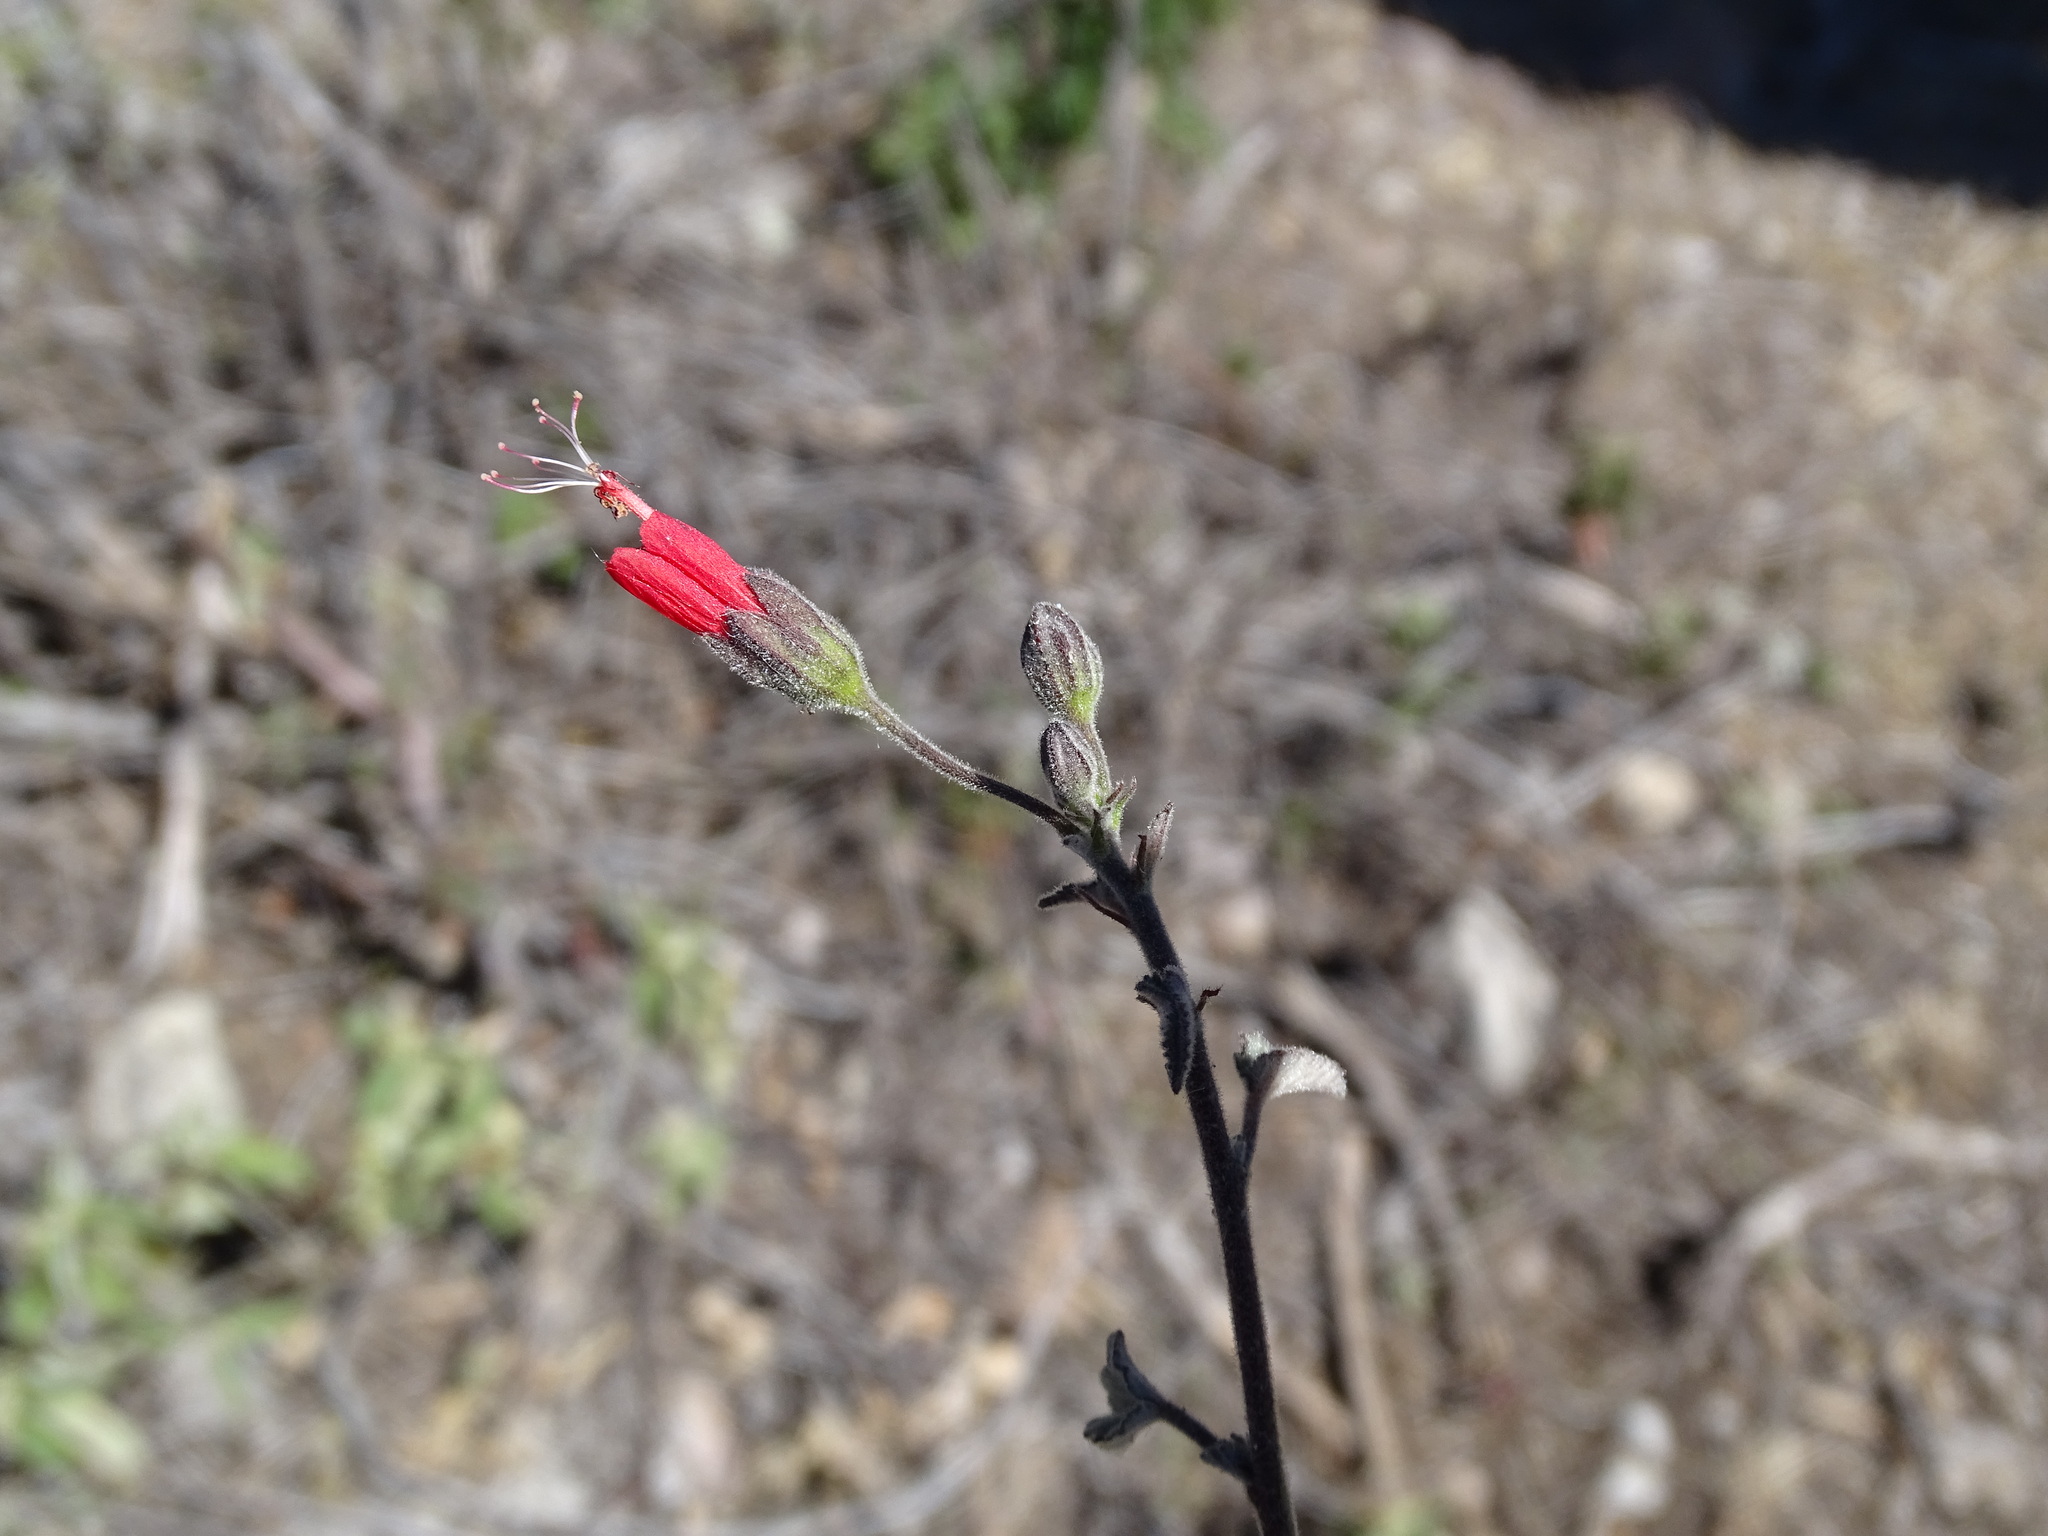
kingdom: Plantae
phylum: Tracheophyta
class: Magnoliopsida
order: Malvales
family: Malvaceae
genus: Periptera
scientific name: Periptera punicea
